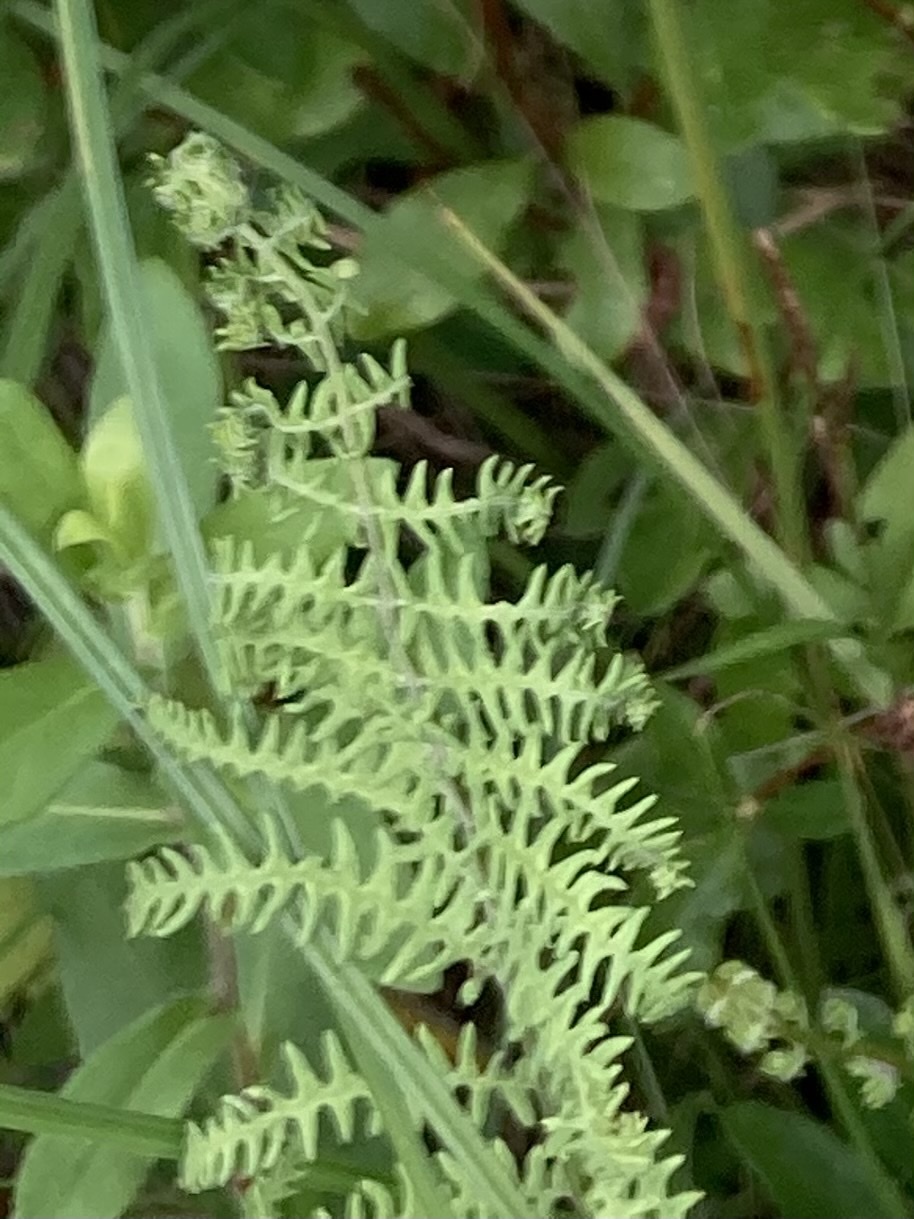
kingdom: Plantae
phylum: Tracheophyta
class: Polypodiopsida
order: Polypodiales
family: Thelypteridaceae
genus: Thelypteris
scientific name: Thelypteris palustris
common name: Marsh fern
